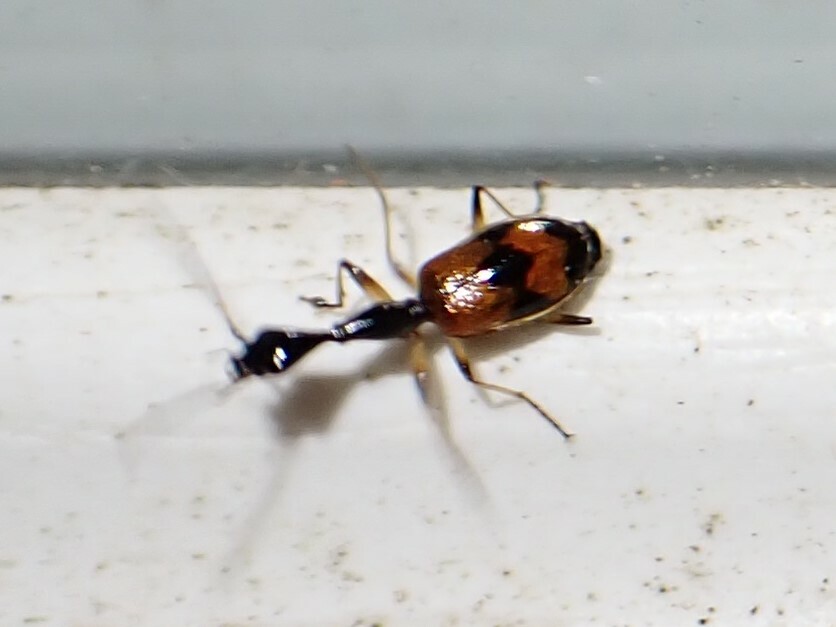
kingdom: Animalia
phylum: Arthropoda
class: Insecta
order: Coleoptera
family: Carabidae
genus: Colliuris
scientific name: Colliuris pensylvanica
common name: Long-necked ground beetle
